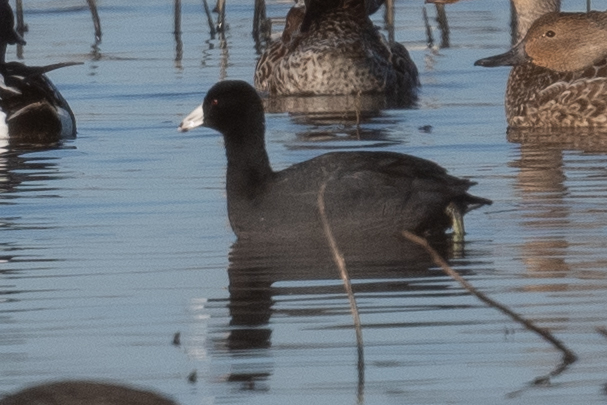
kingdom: Animalia
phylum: Chordata
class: Aves
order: Gruiformes
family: Rallidae
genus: Fulica
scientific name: Fulica americana
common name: American coot
